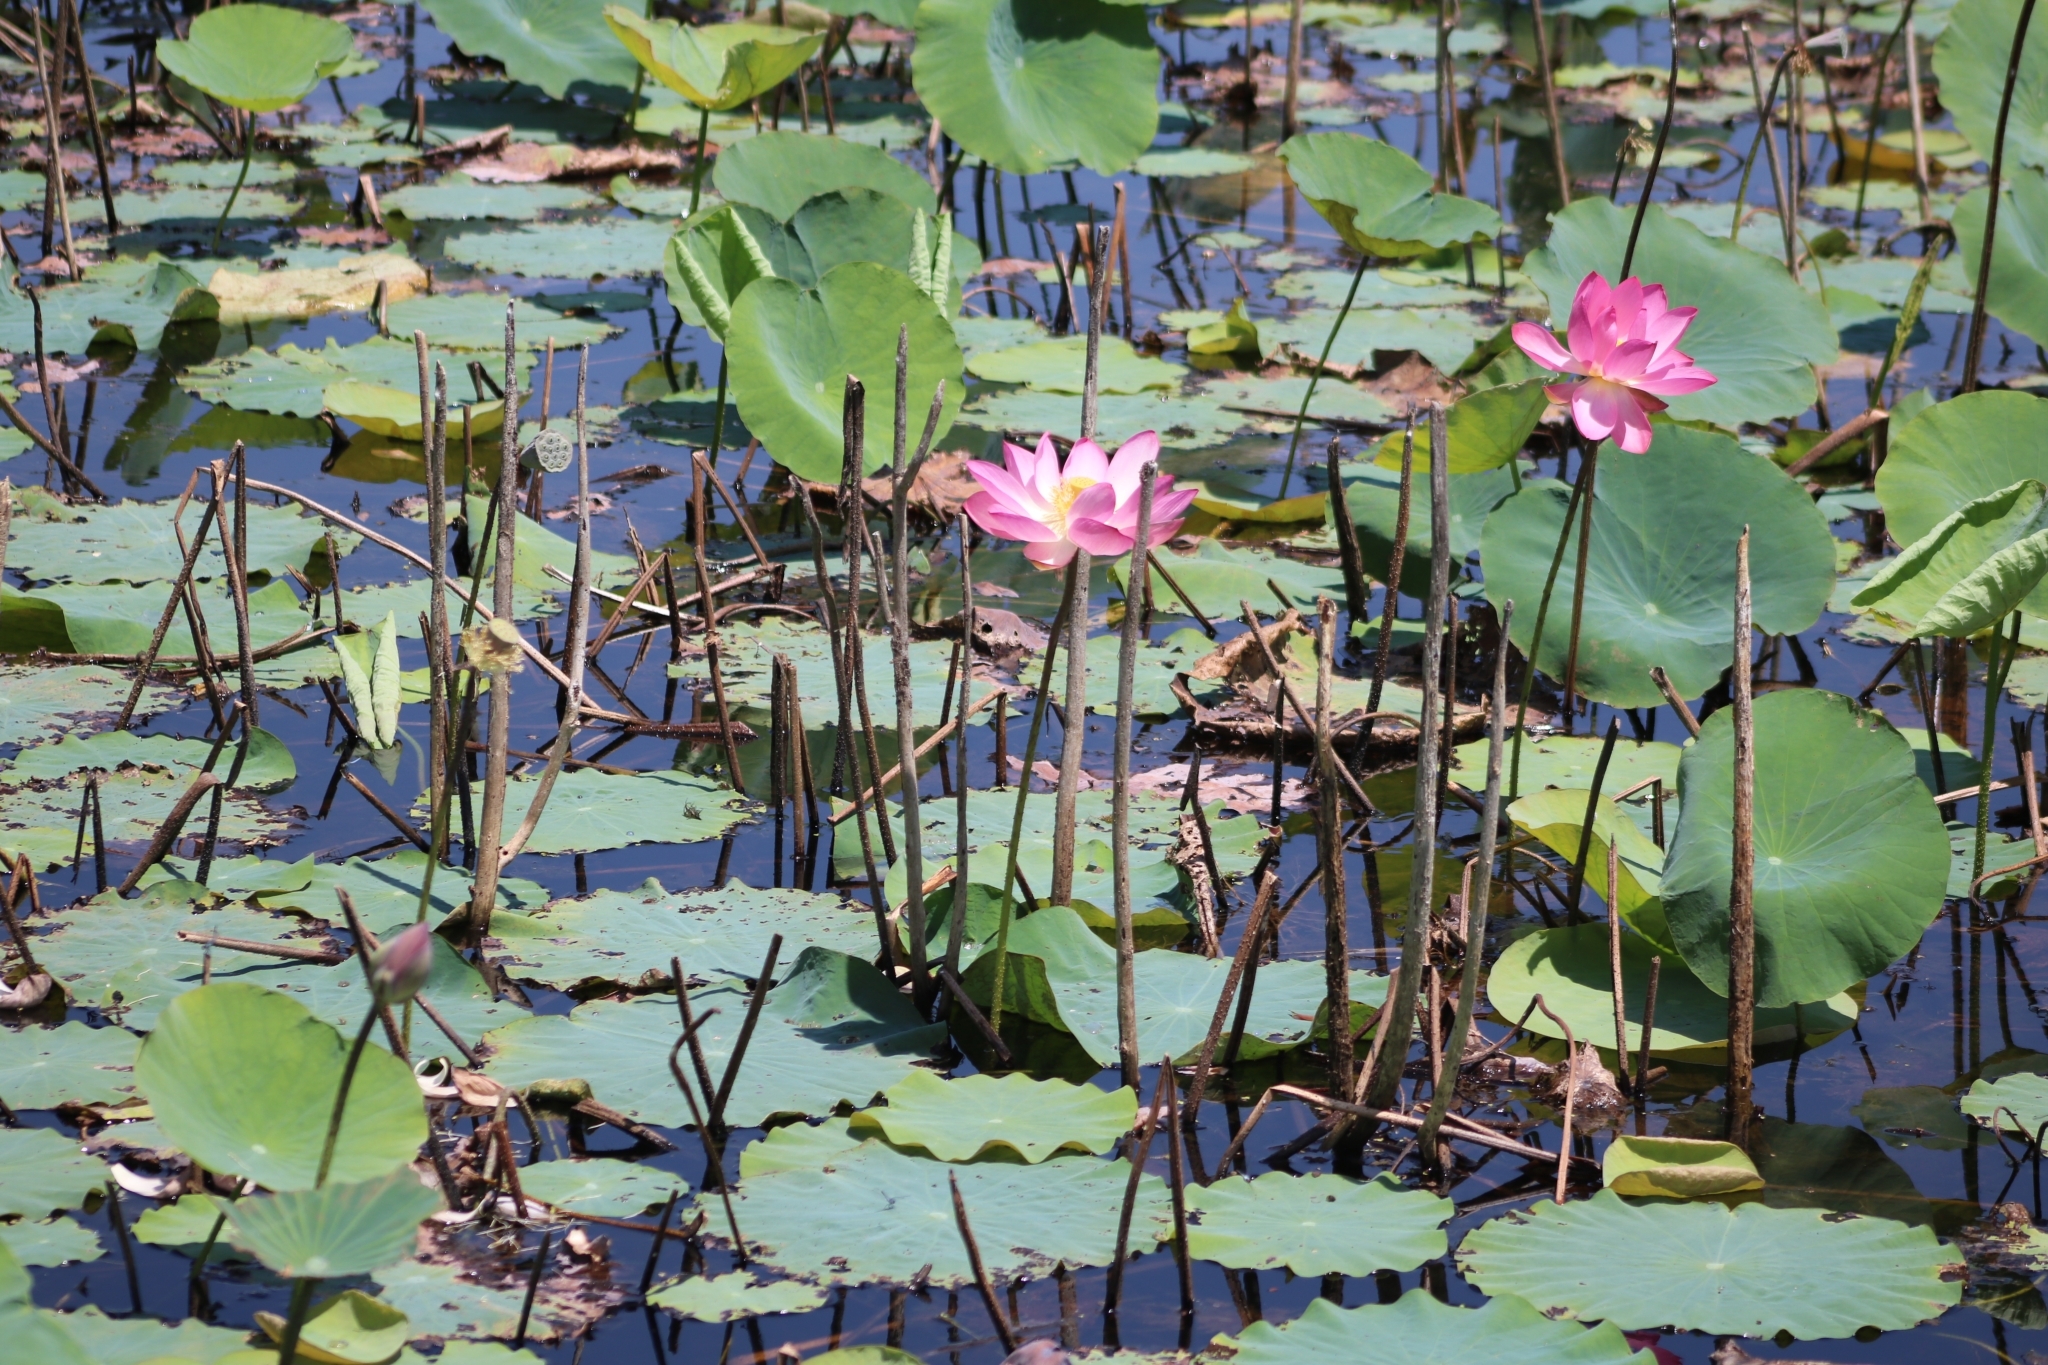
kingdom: Plantae
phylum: Tracheophyta
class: Magnoliopsida
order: Proteales
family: Nelumbonaceae
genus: Nelumbo
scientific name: Nelumbo nucifera
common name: Sacred lotus
